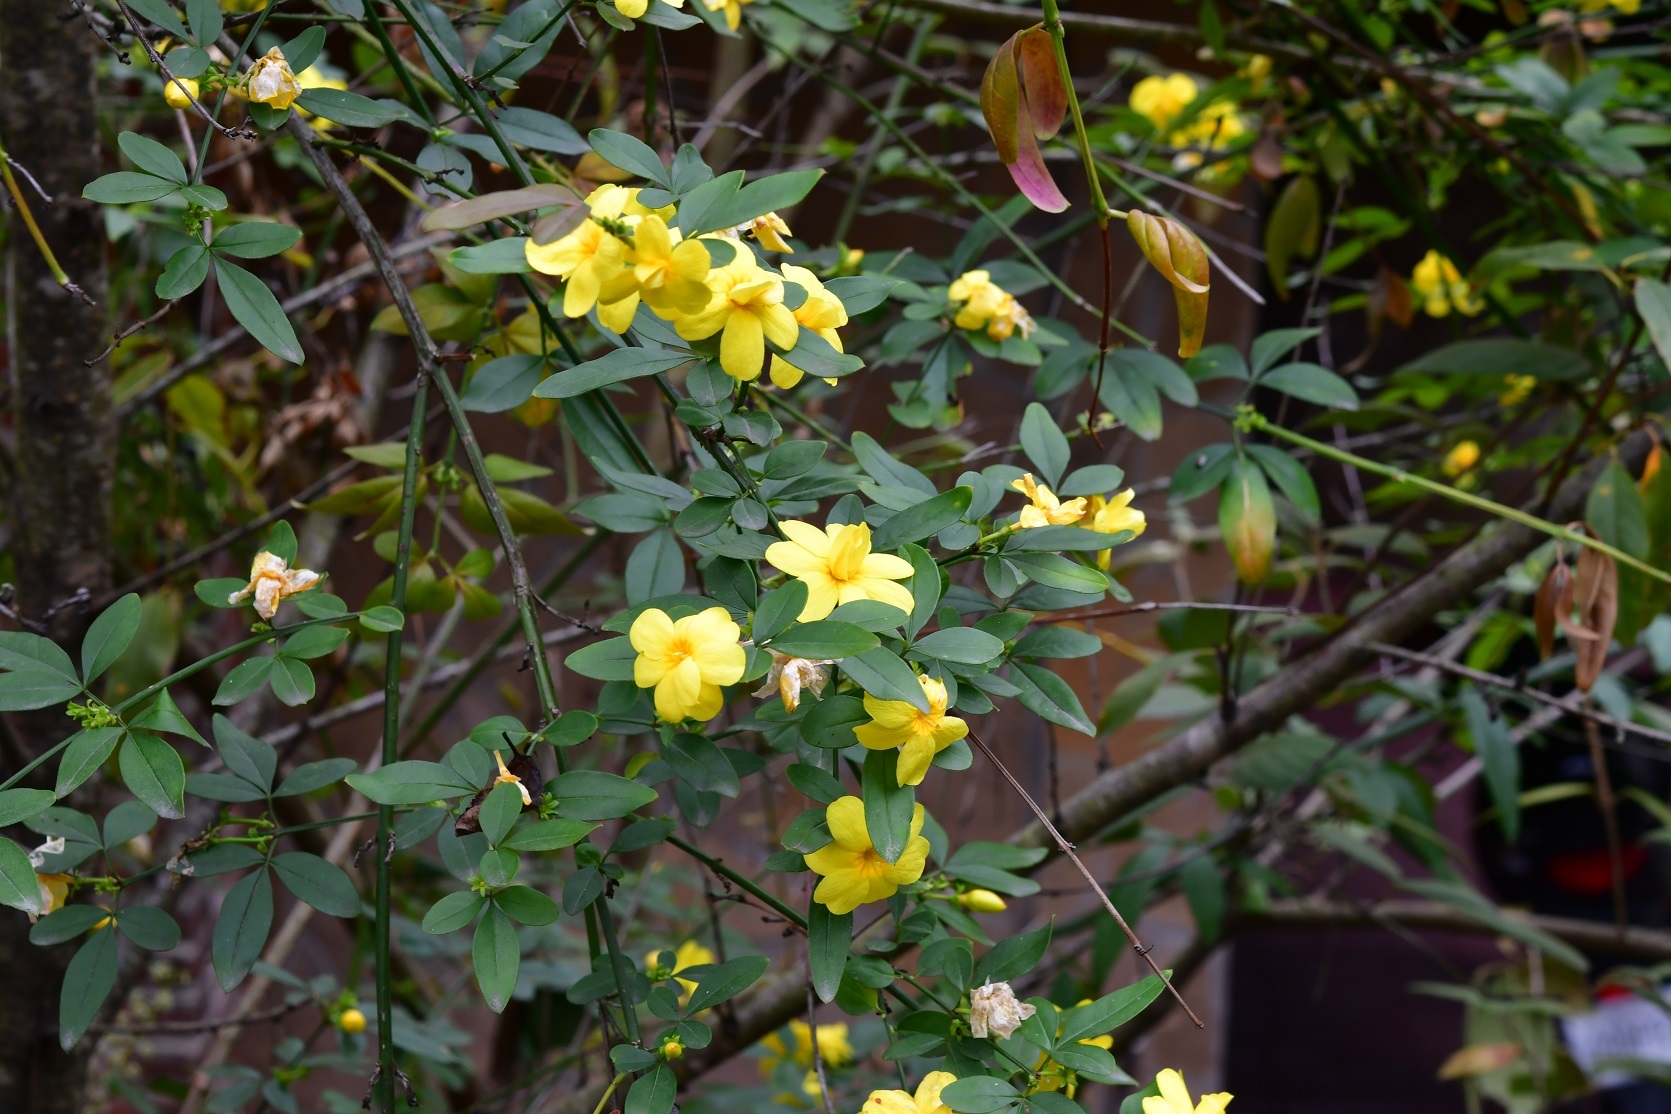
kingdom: Plantae
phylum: Tracheophyta
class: Magnoliopsida
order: Lamiales
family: Oleaceae
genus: Jasminum
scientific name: Jasminum mesnyi
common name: Japanese jasmine
